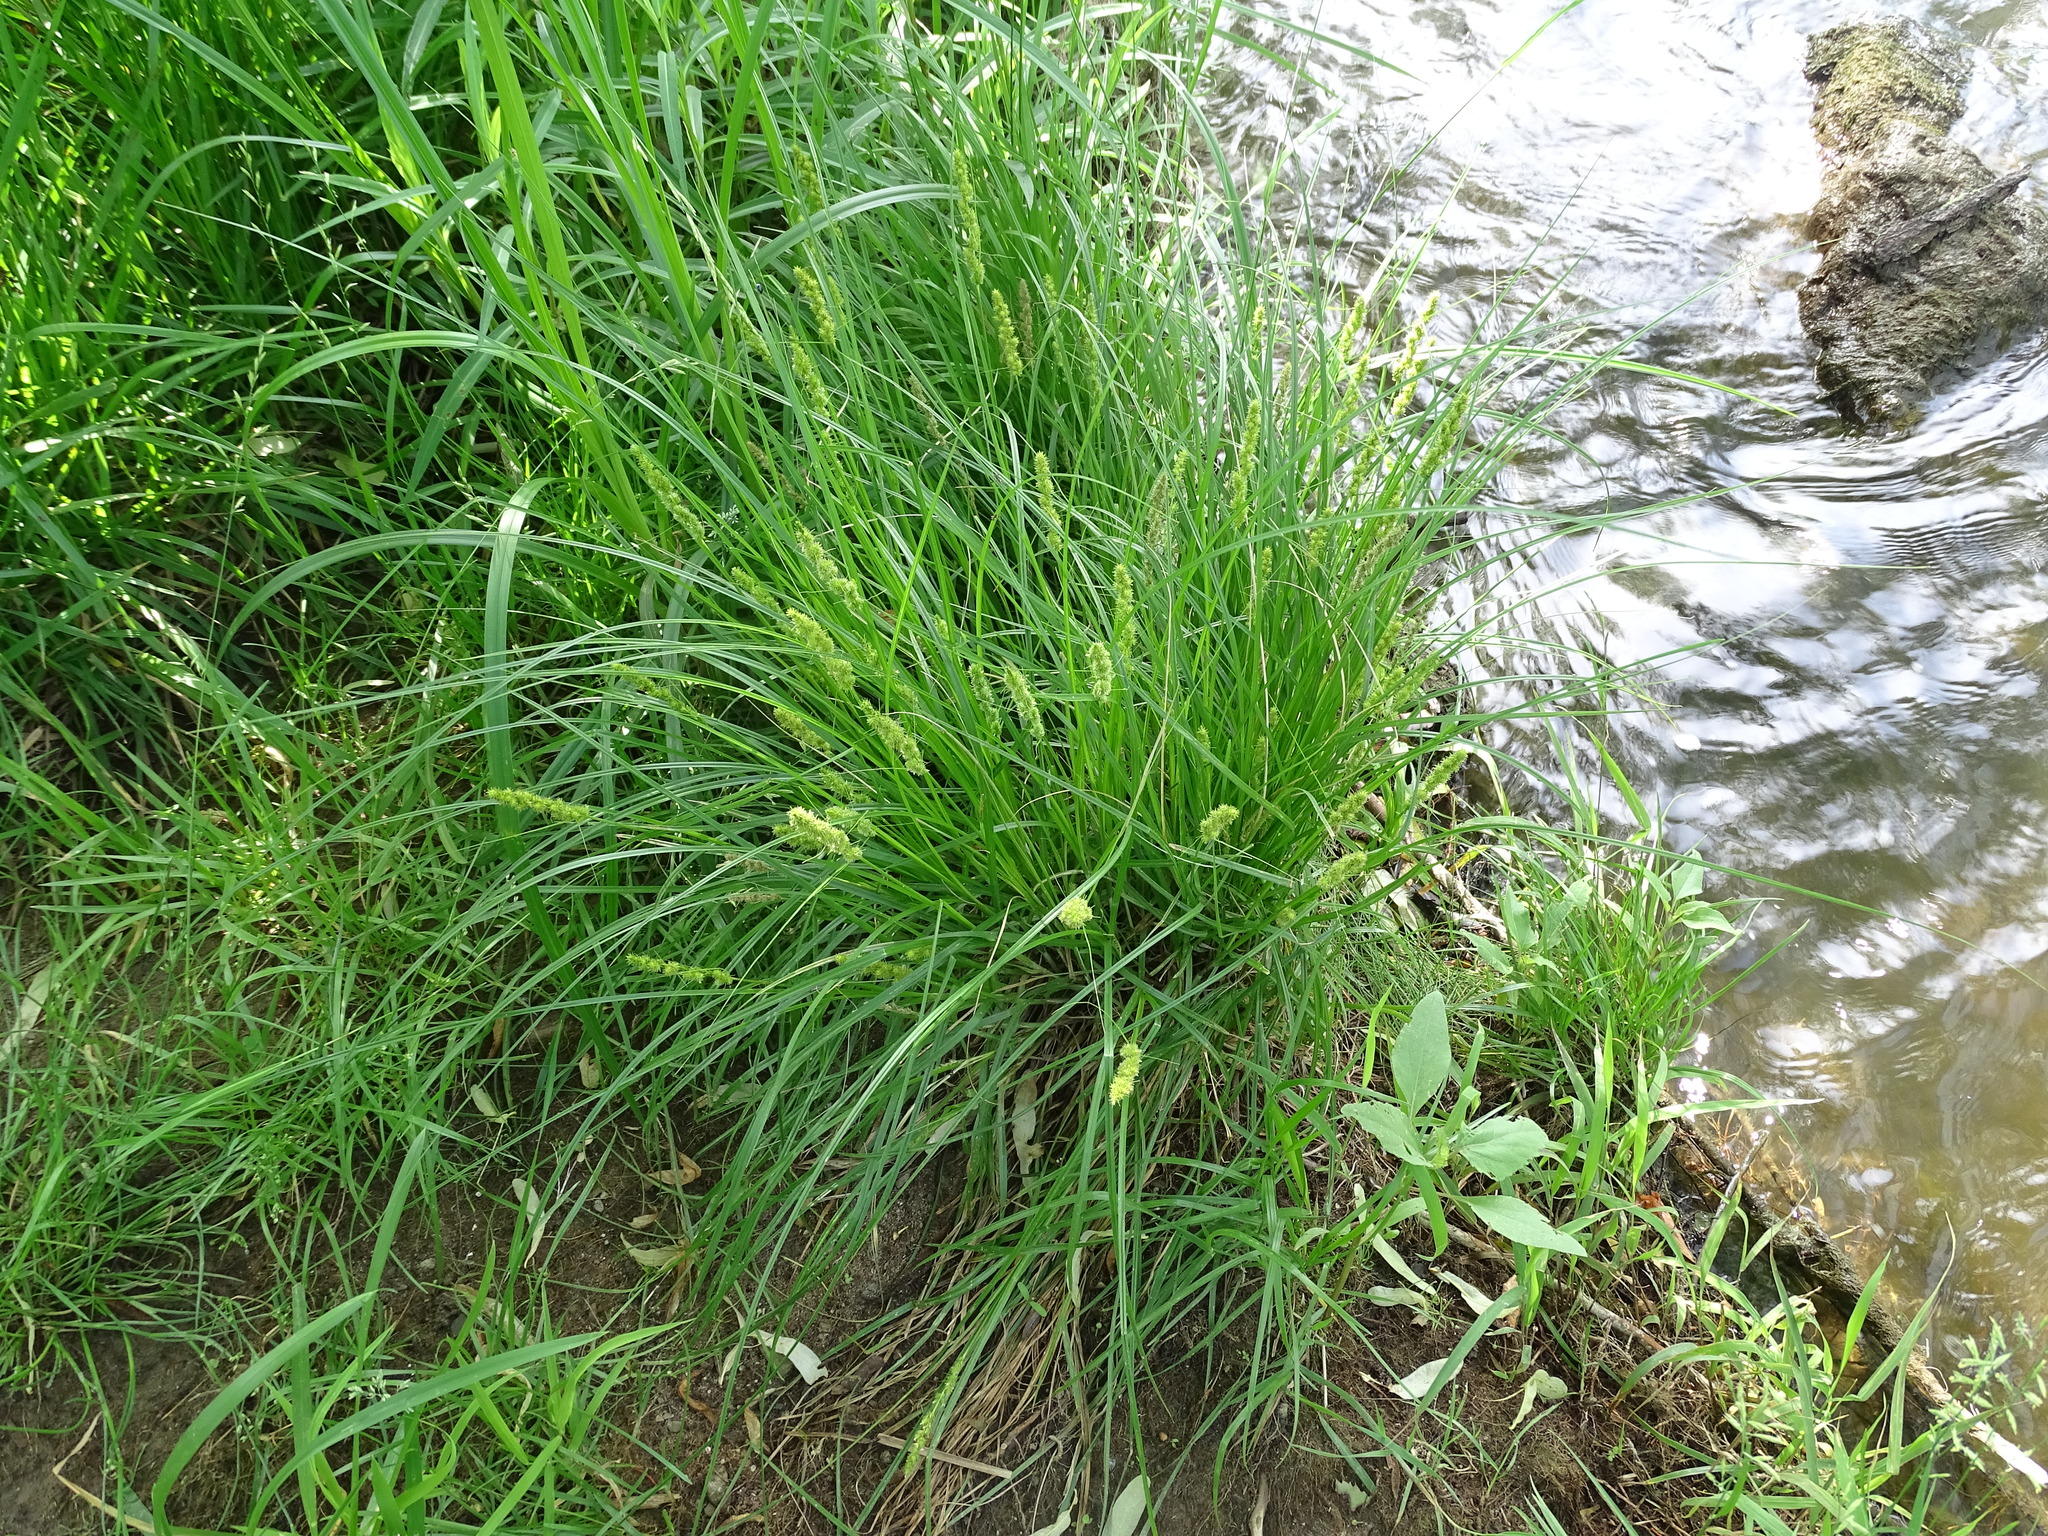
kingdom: Plantae
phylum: Tracheophyta
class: Liliopsida
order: Poales
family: Cyperaceae
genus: Carex
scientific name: Carex vulpinoidea
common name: American fox-sedge
